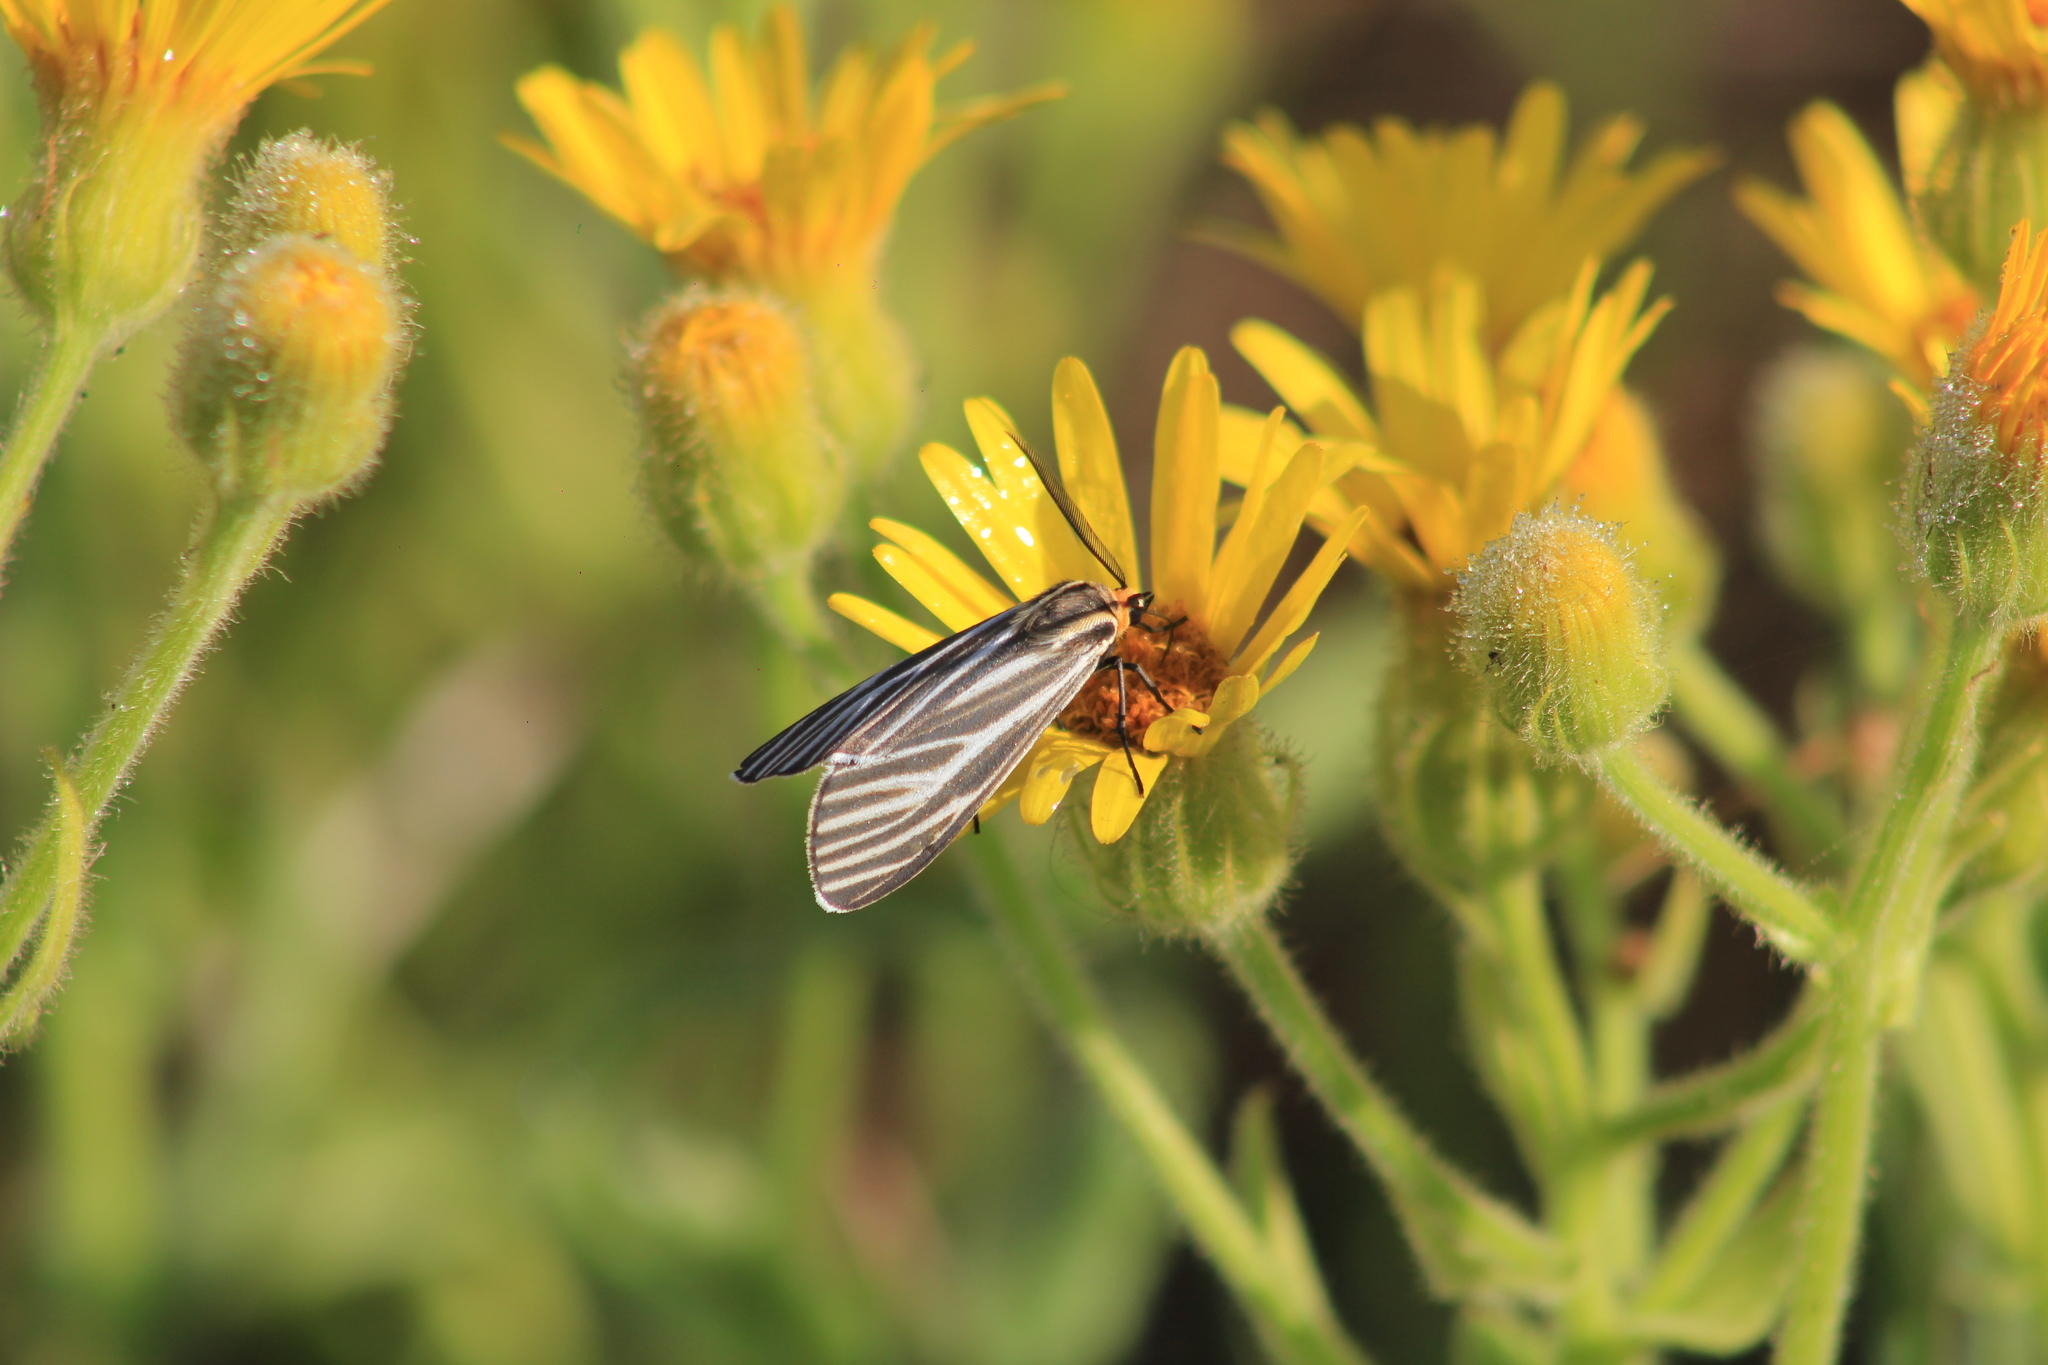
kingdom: Animalia
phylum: Arthropoda
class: Insecta
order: Lepidoptera
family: Erebidae
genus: Ctenucha
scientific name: Ctenucha vittigerum
